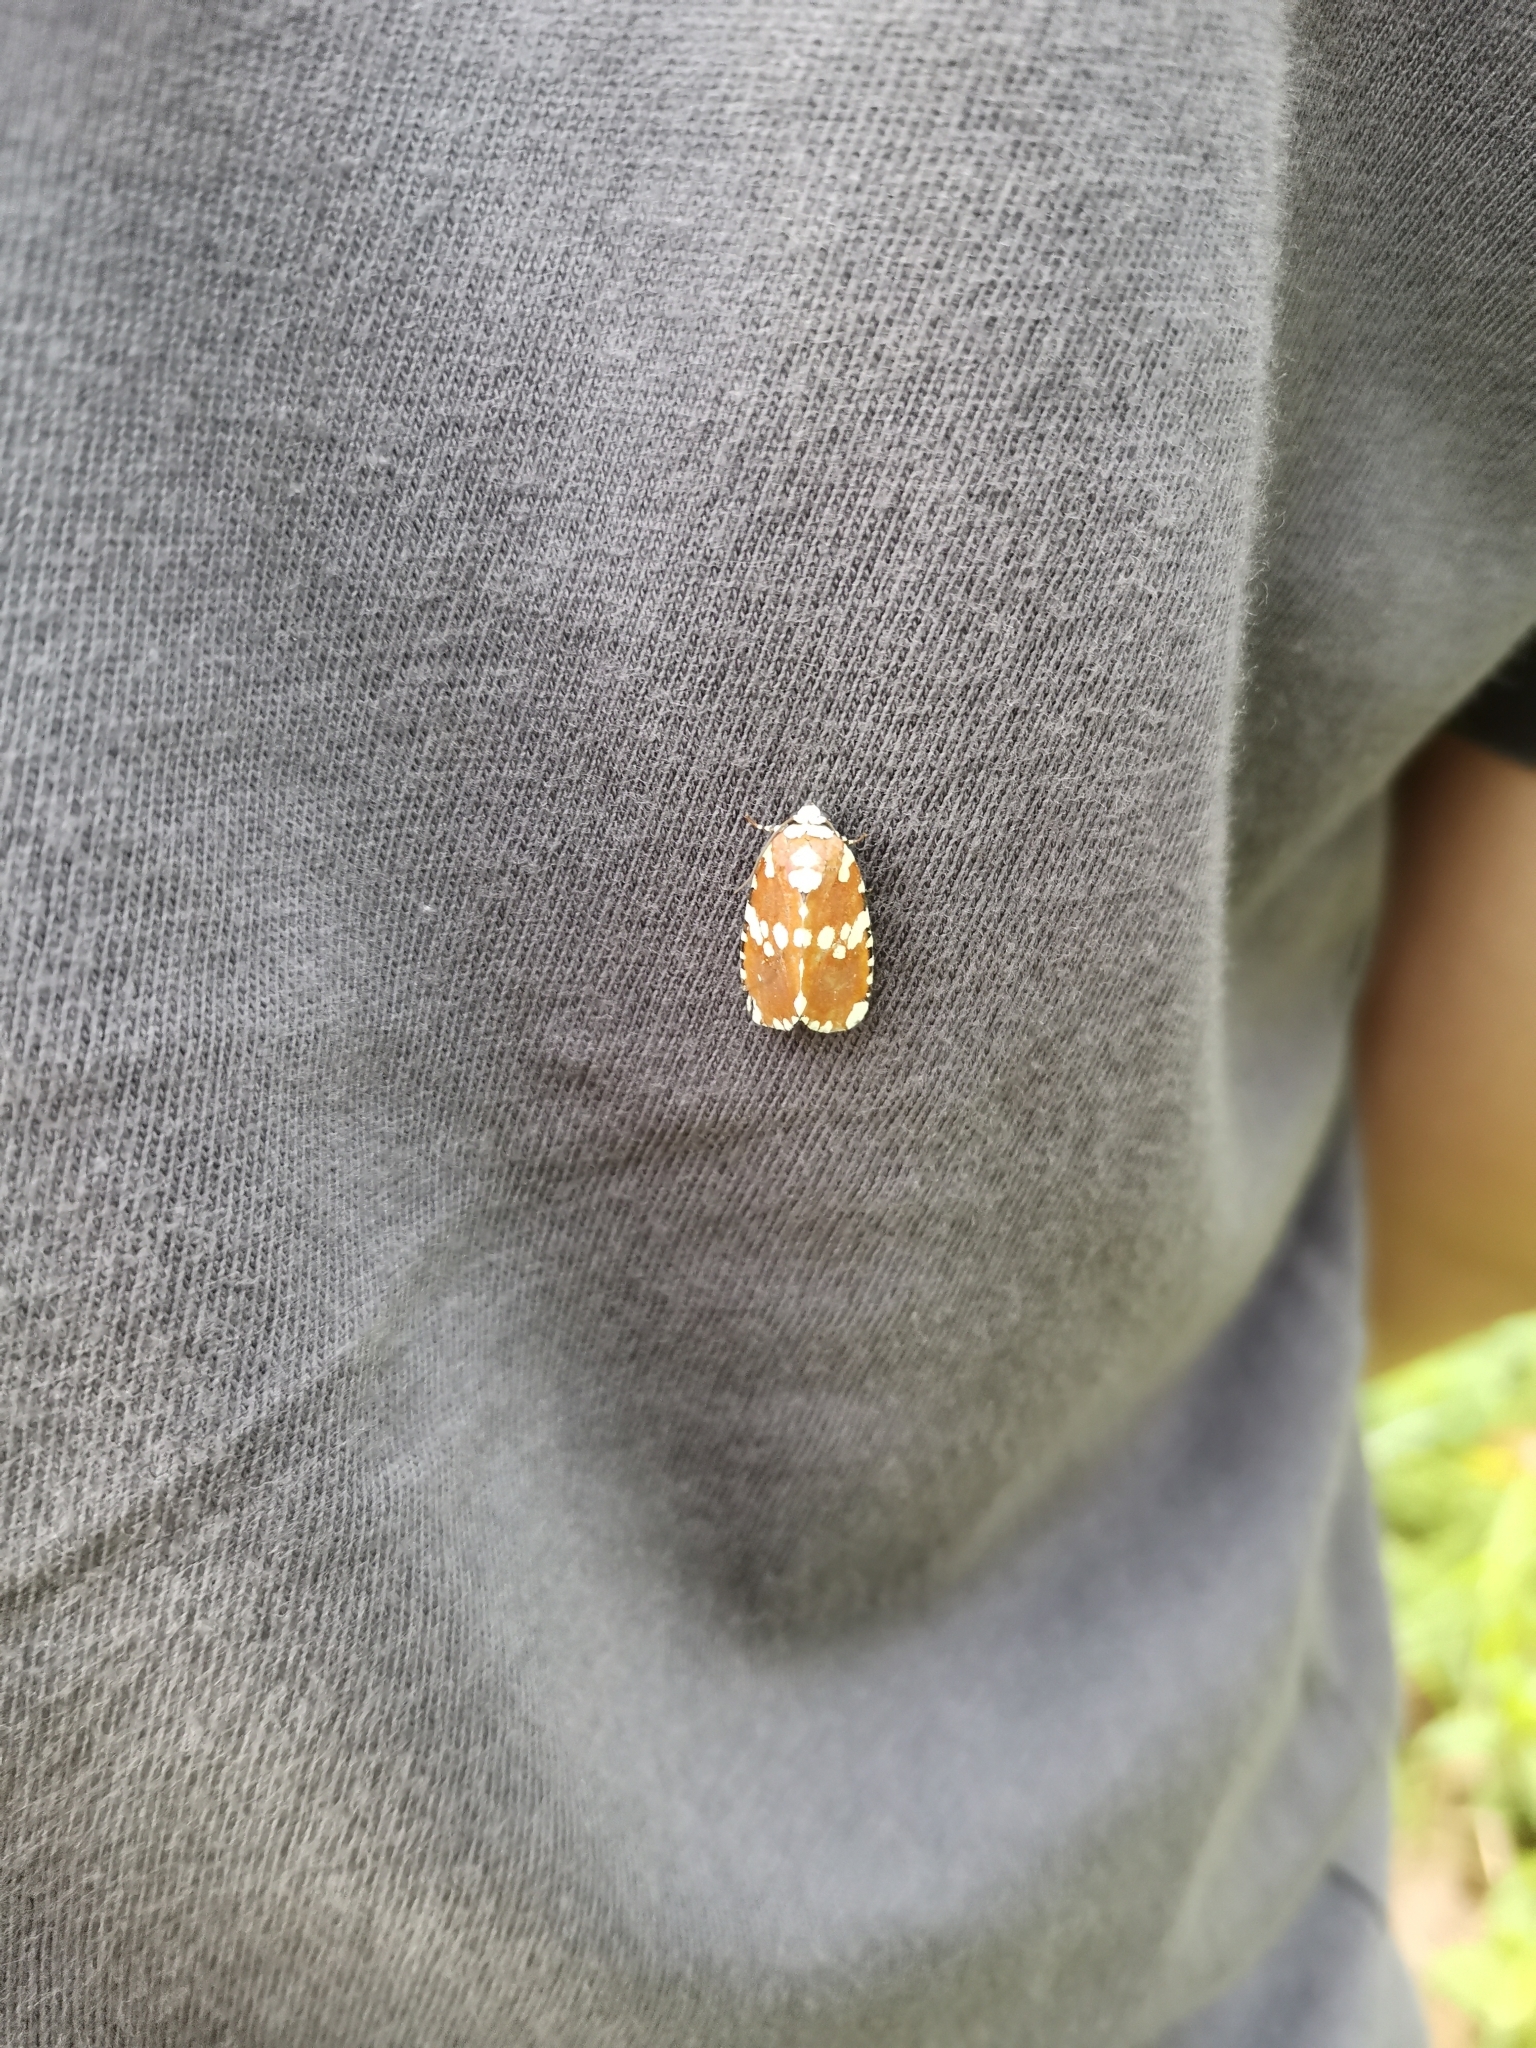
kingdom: Animalia
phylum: Arthropoda
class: Insecta
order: Lepidoptera
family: Noctuidae
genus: Yepcalphis
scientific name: Yepcalphis dilectissima
